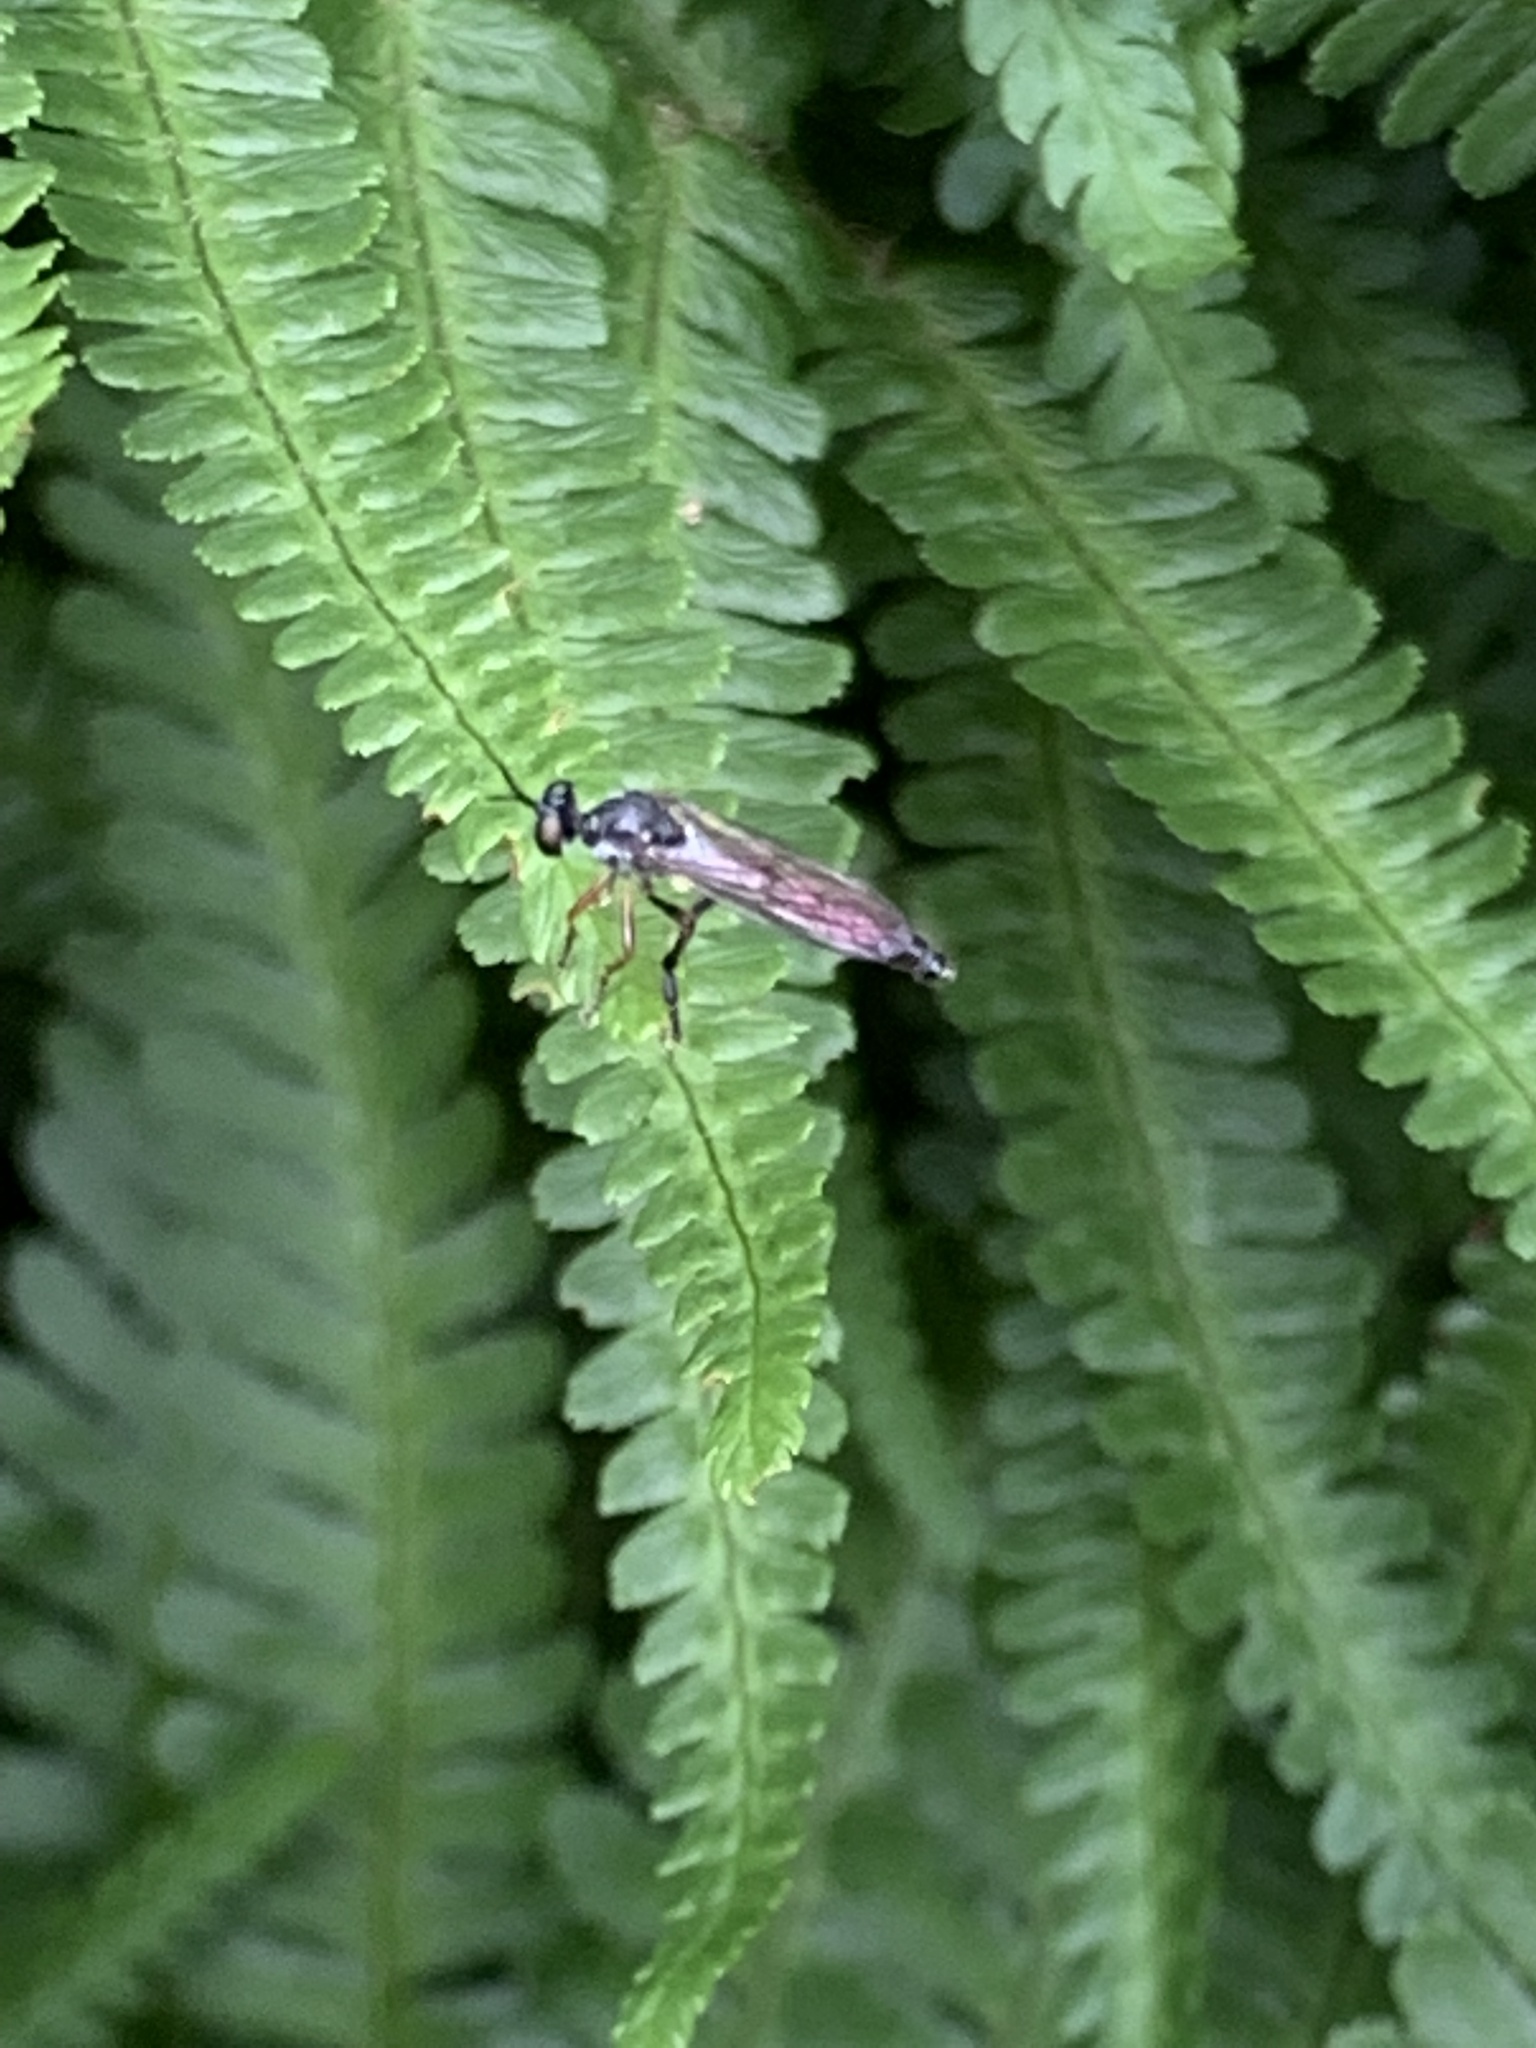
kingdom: Animalia
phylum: Arthropoda
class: Insecta
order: Diptera
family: Asilidae
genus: Dioctria
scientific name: Dioctria hyalipennis
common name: Stripe-legged robberfly
